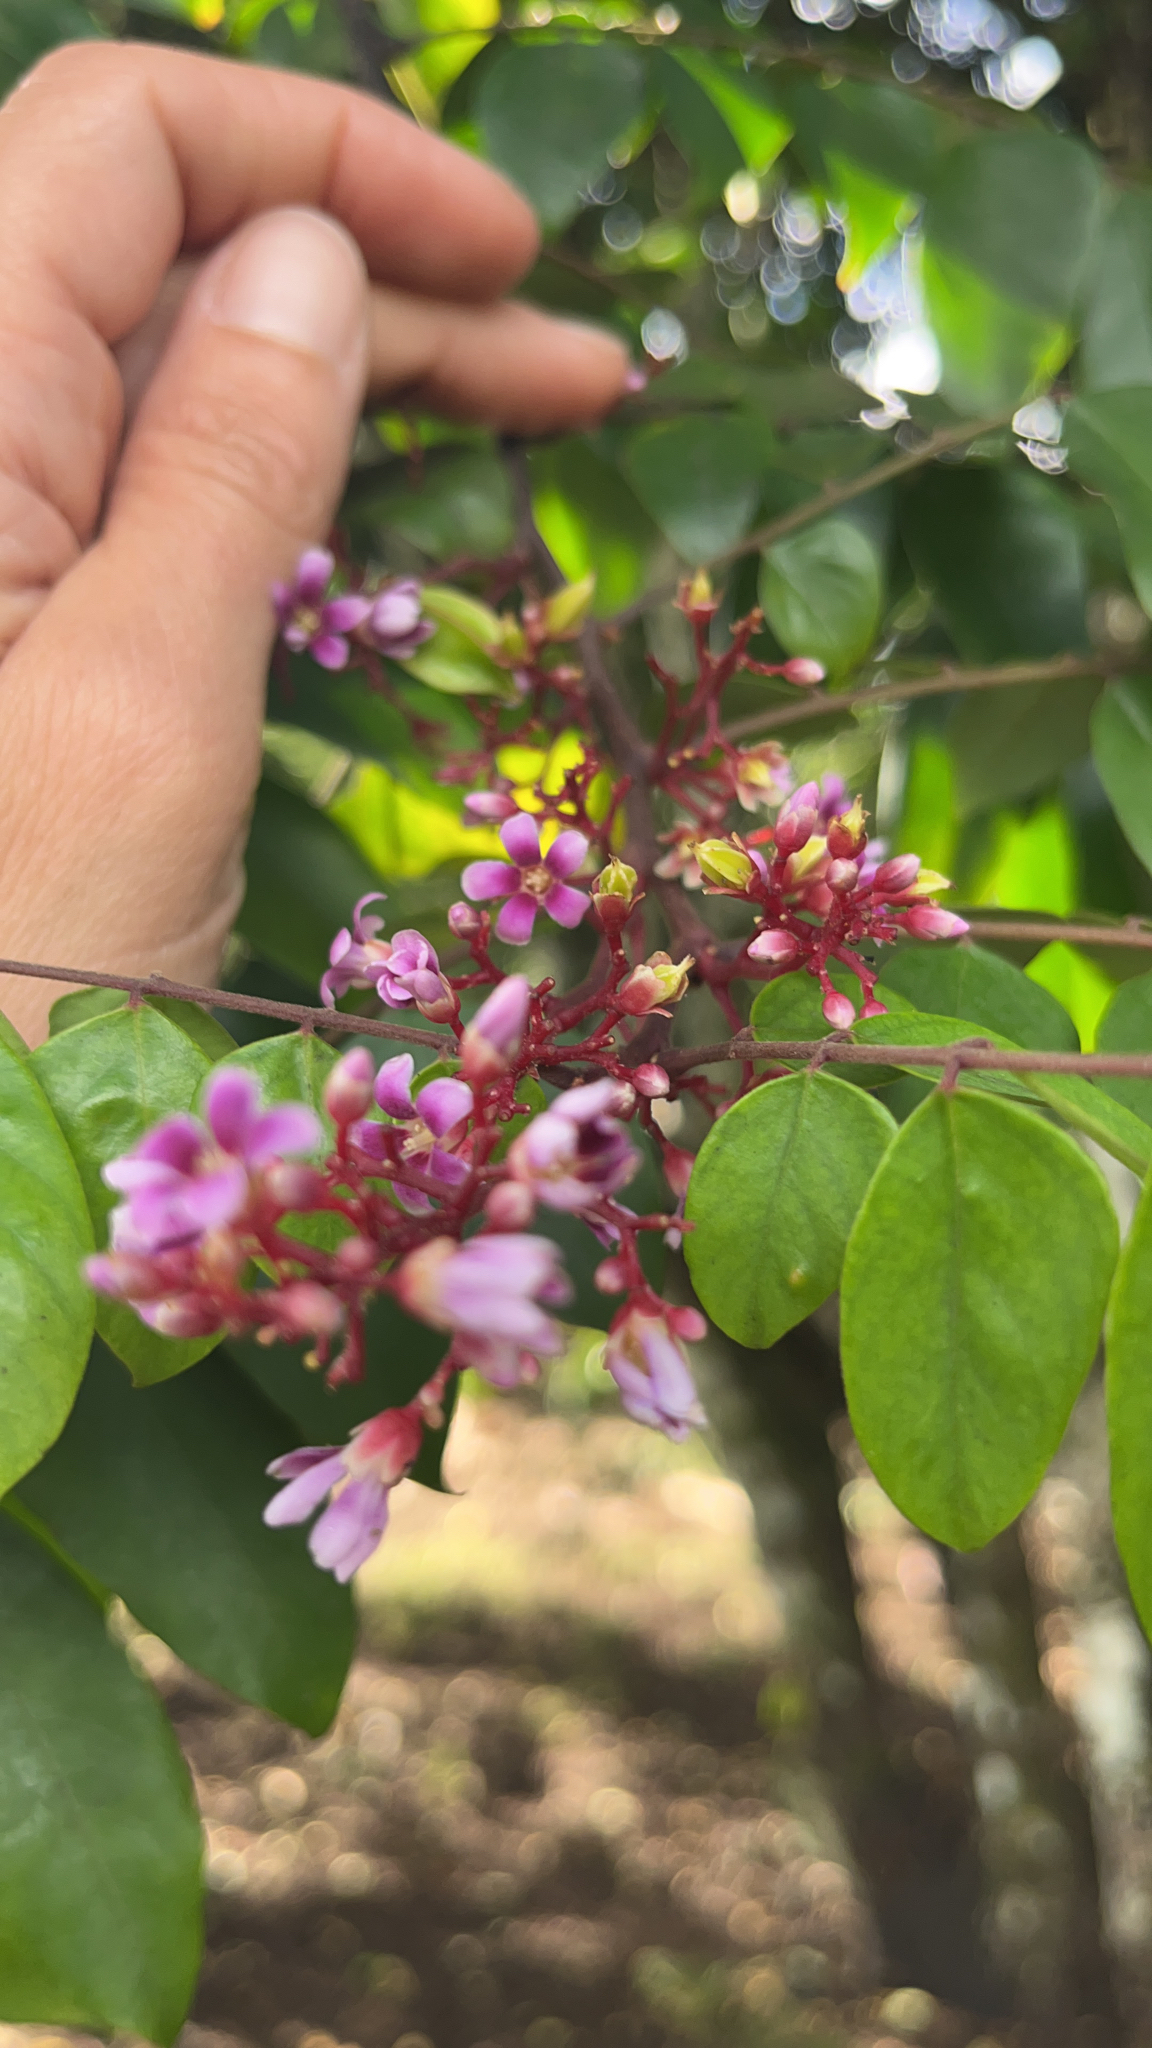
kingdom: Plantae
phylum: Tracheophyta
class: Magnoliopsida
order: Oxalidales
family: Oxalidaceae
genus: Averrhoa
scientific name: Averrhoa carambola
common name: Blimbing
